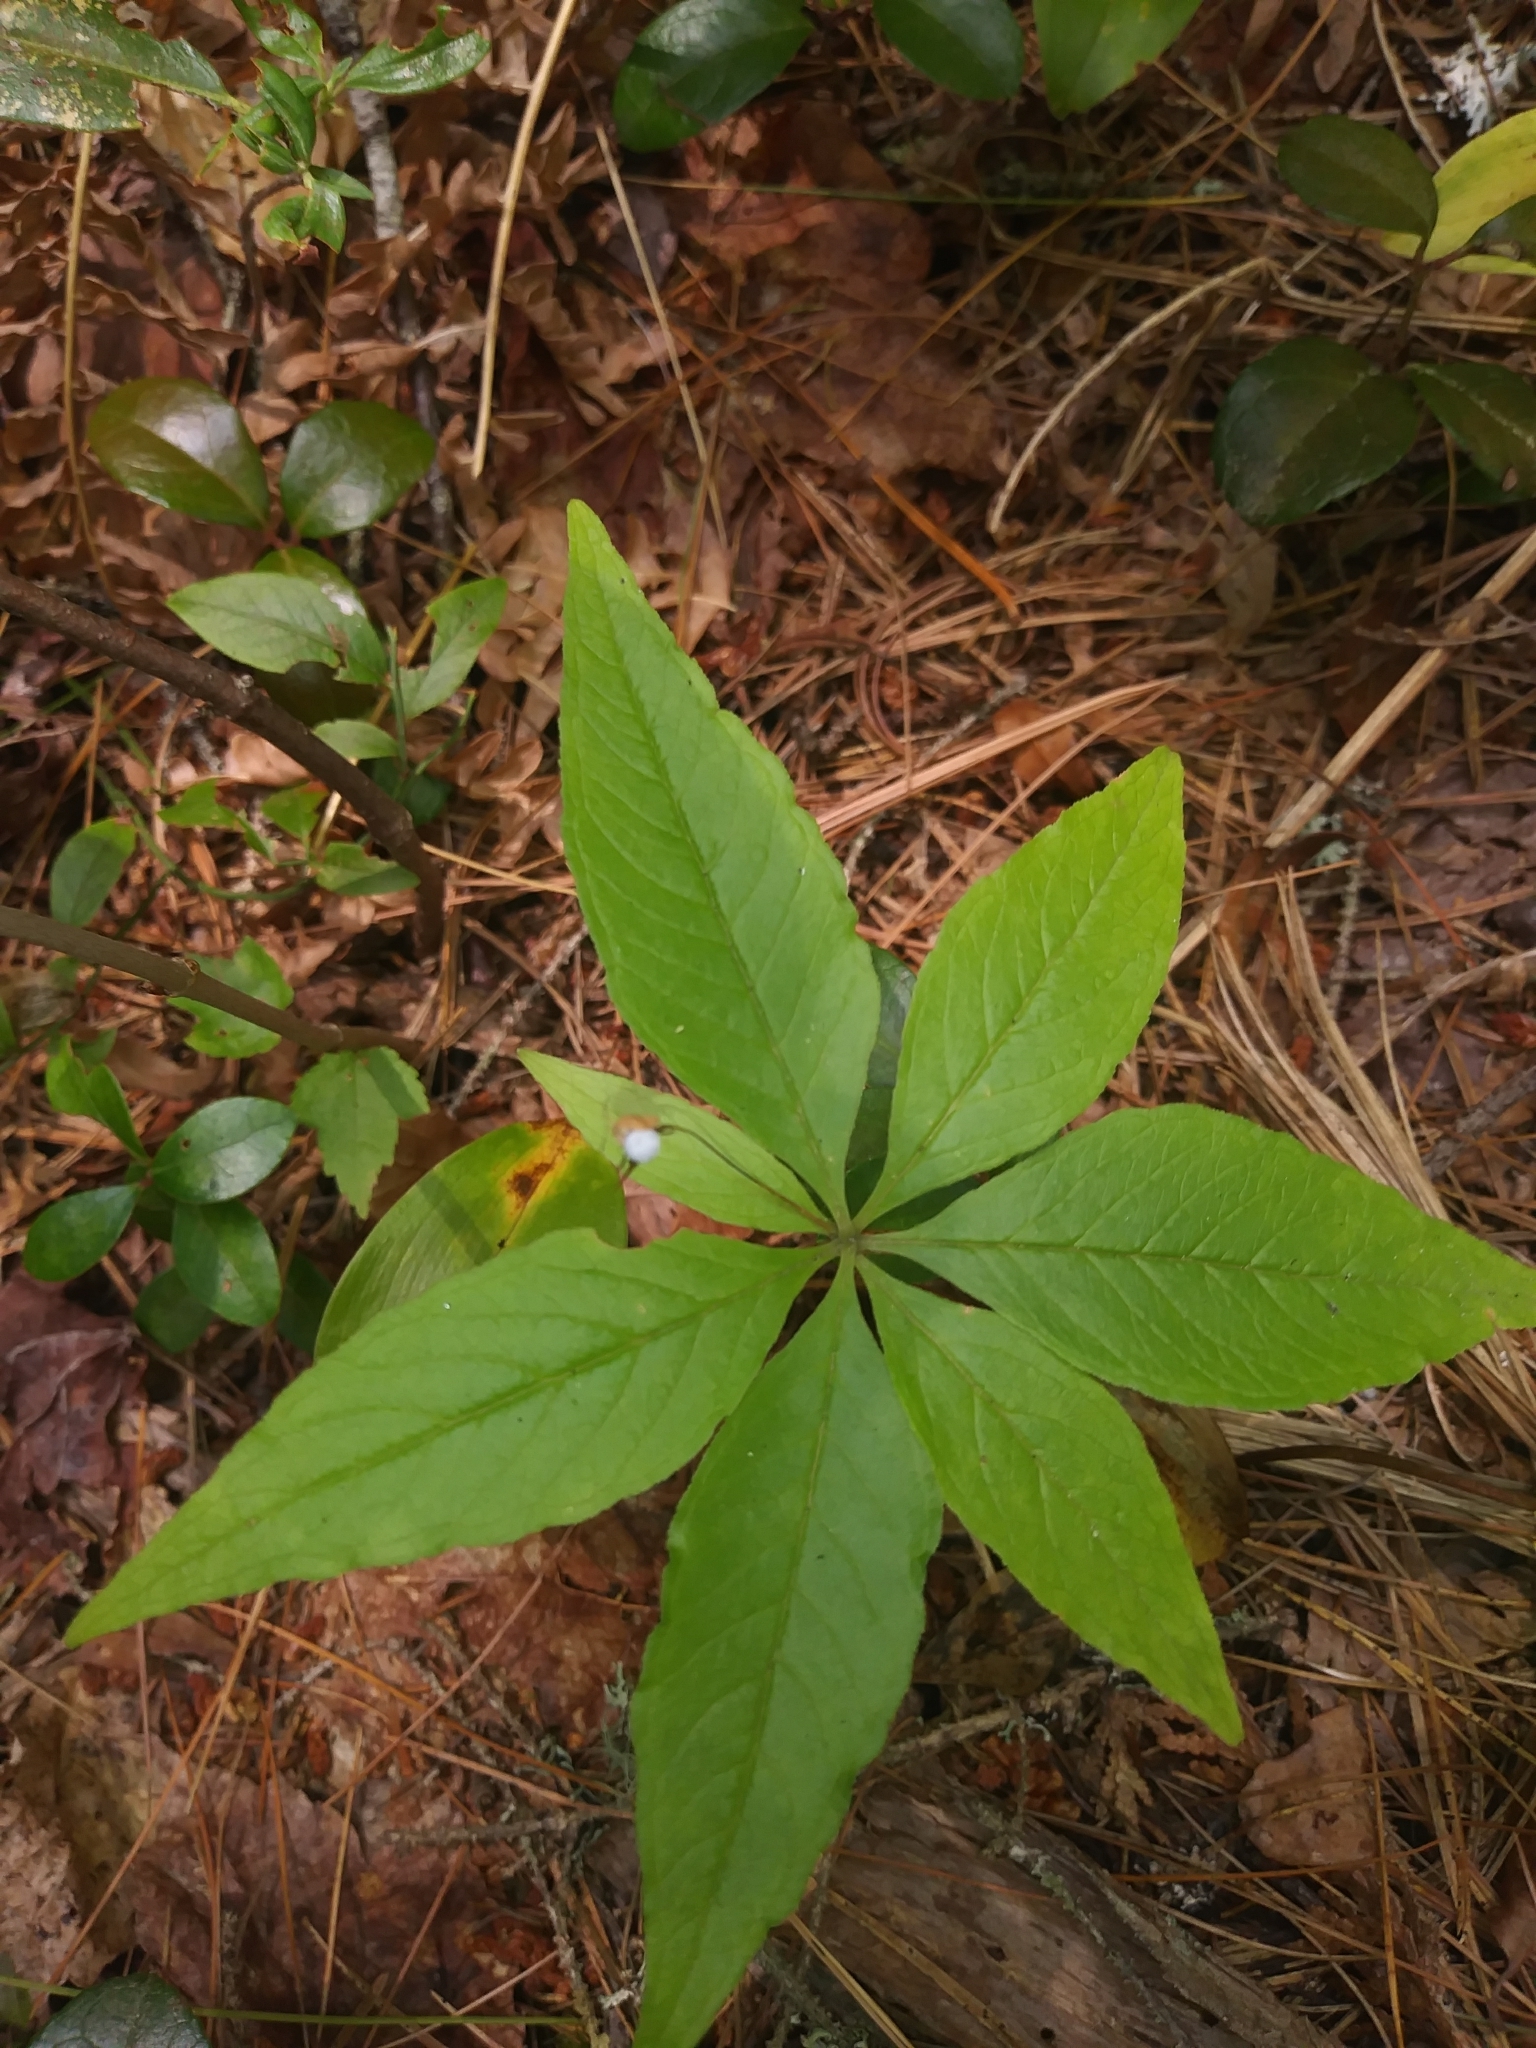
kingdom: Plantae
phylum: Tracheophyta
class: Magnoliopsida
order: Ericales
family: Primulaceae
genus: Lysimachia
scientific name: Lysimachia borealis
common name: American starflower
